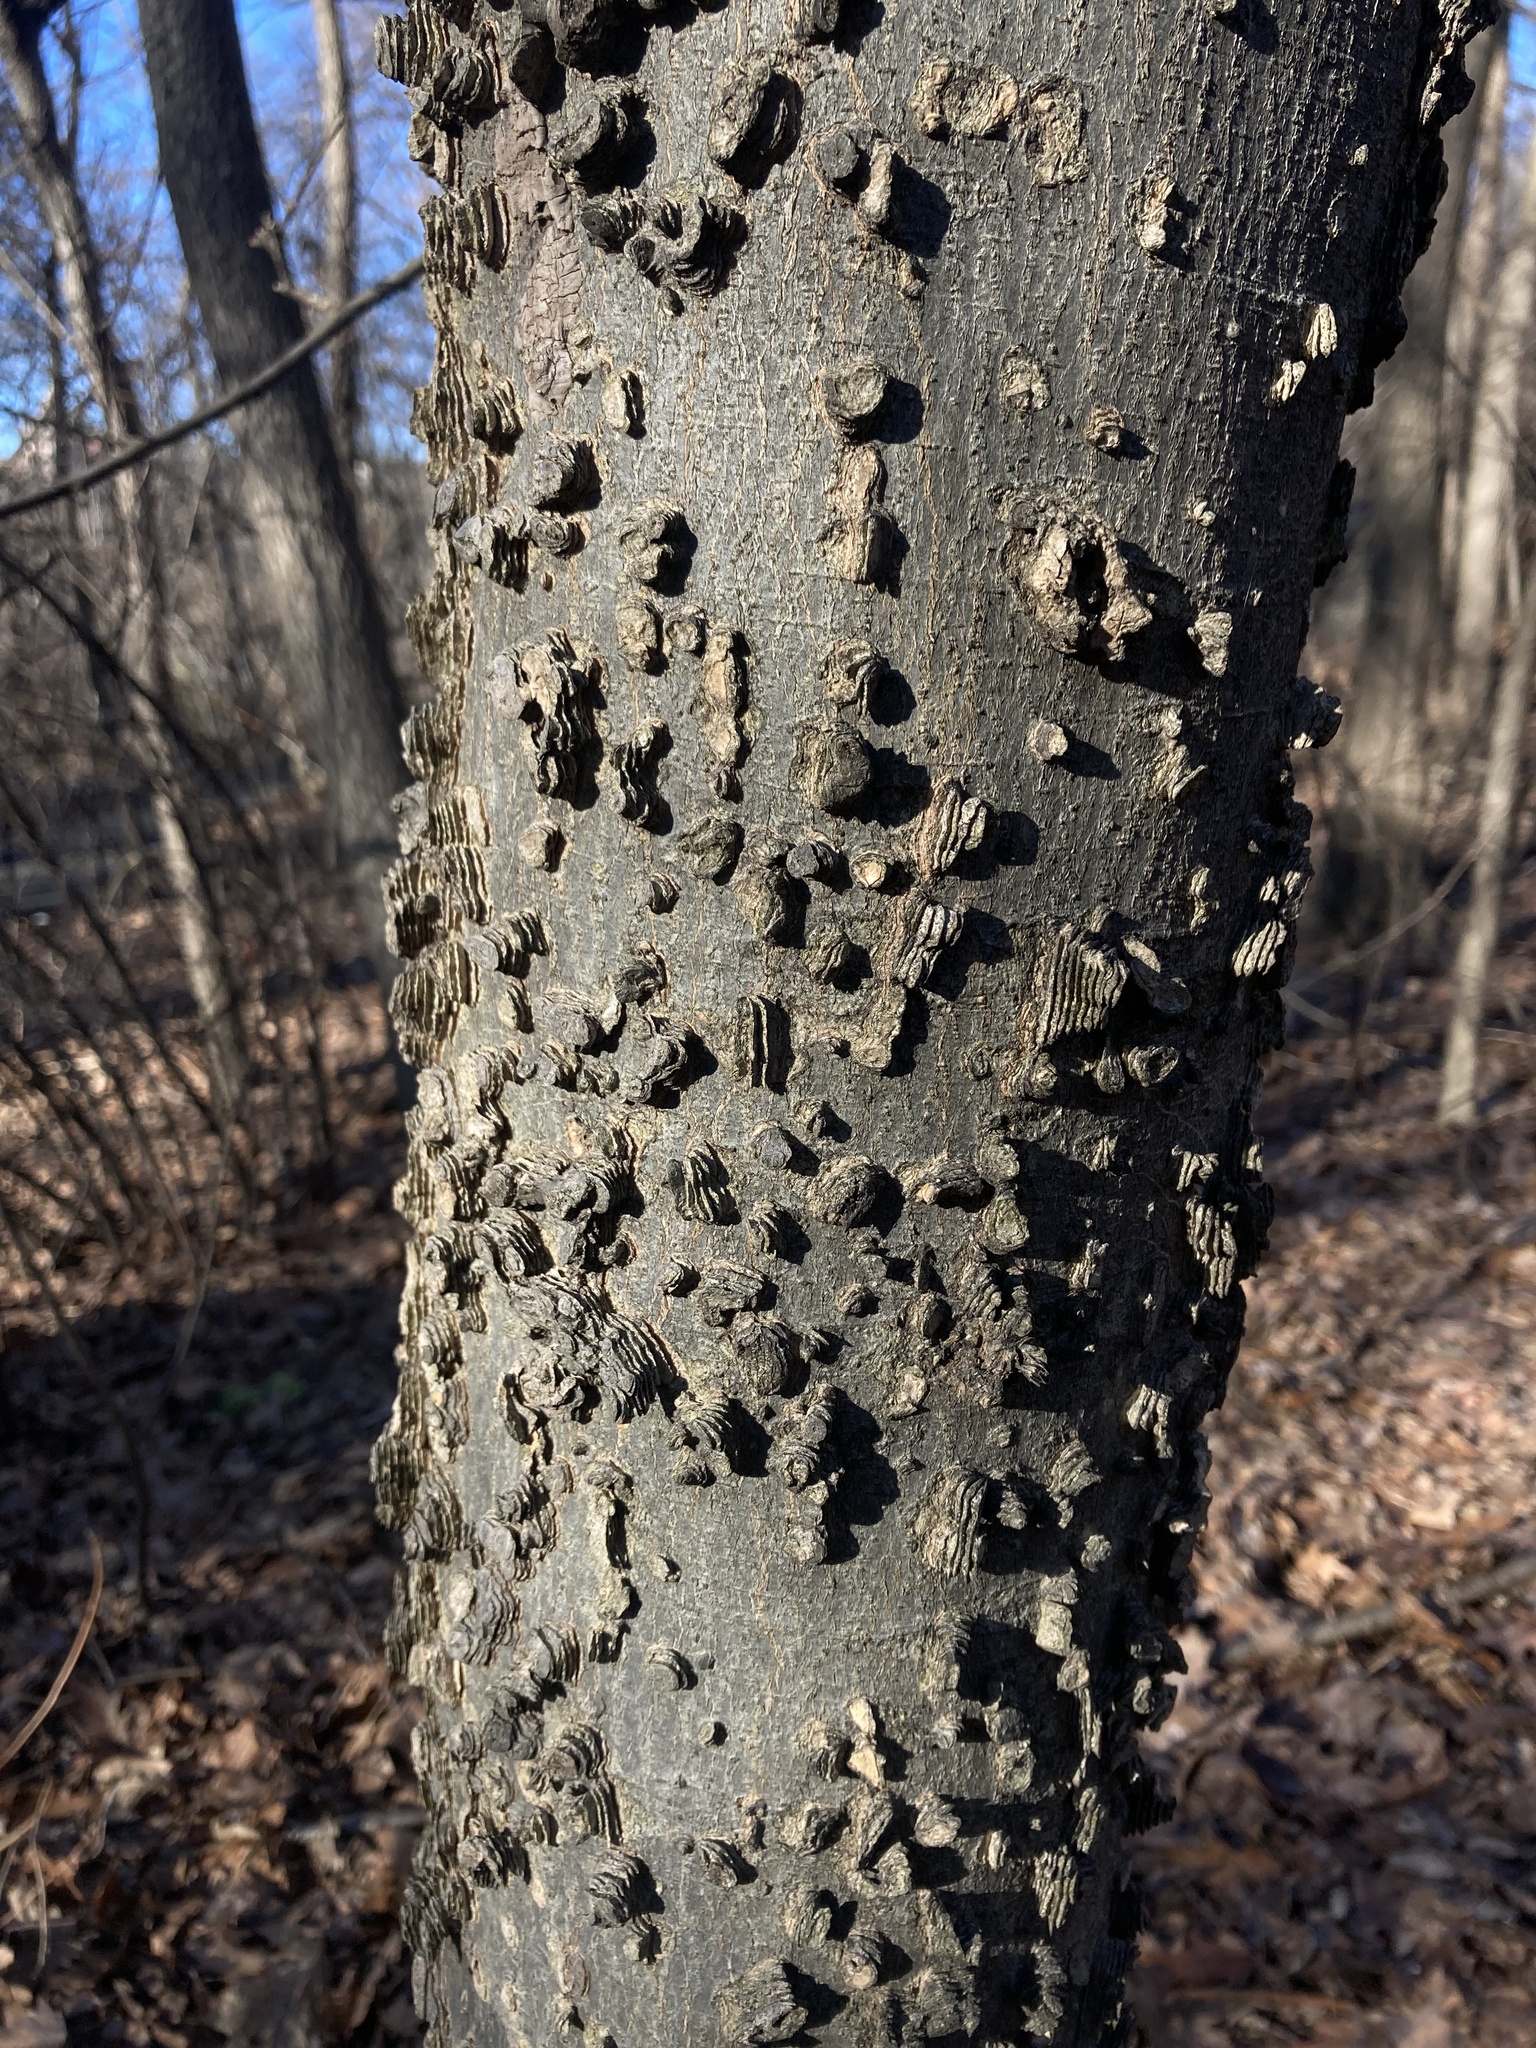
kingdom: Plantae
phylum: Tracheophyta
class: Magnoliopsida
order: Rosales
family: Cannabaceae
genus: Celtis
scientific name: Celtis occidentalis
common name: Common hackberry
